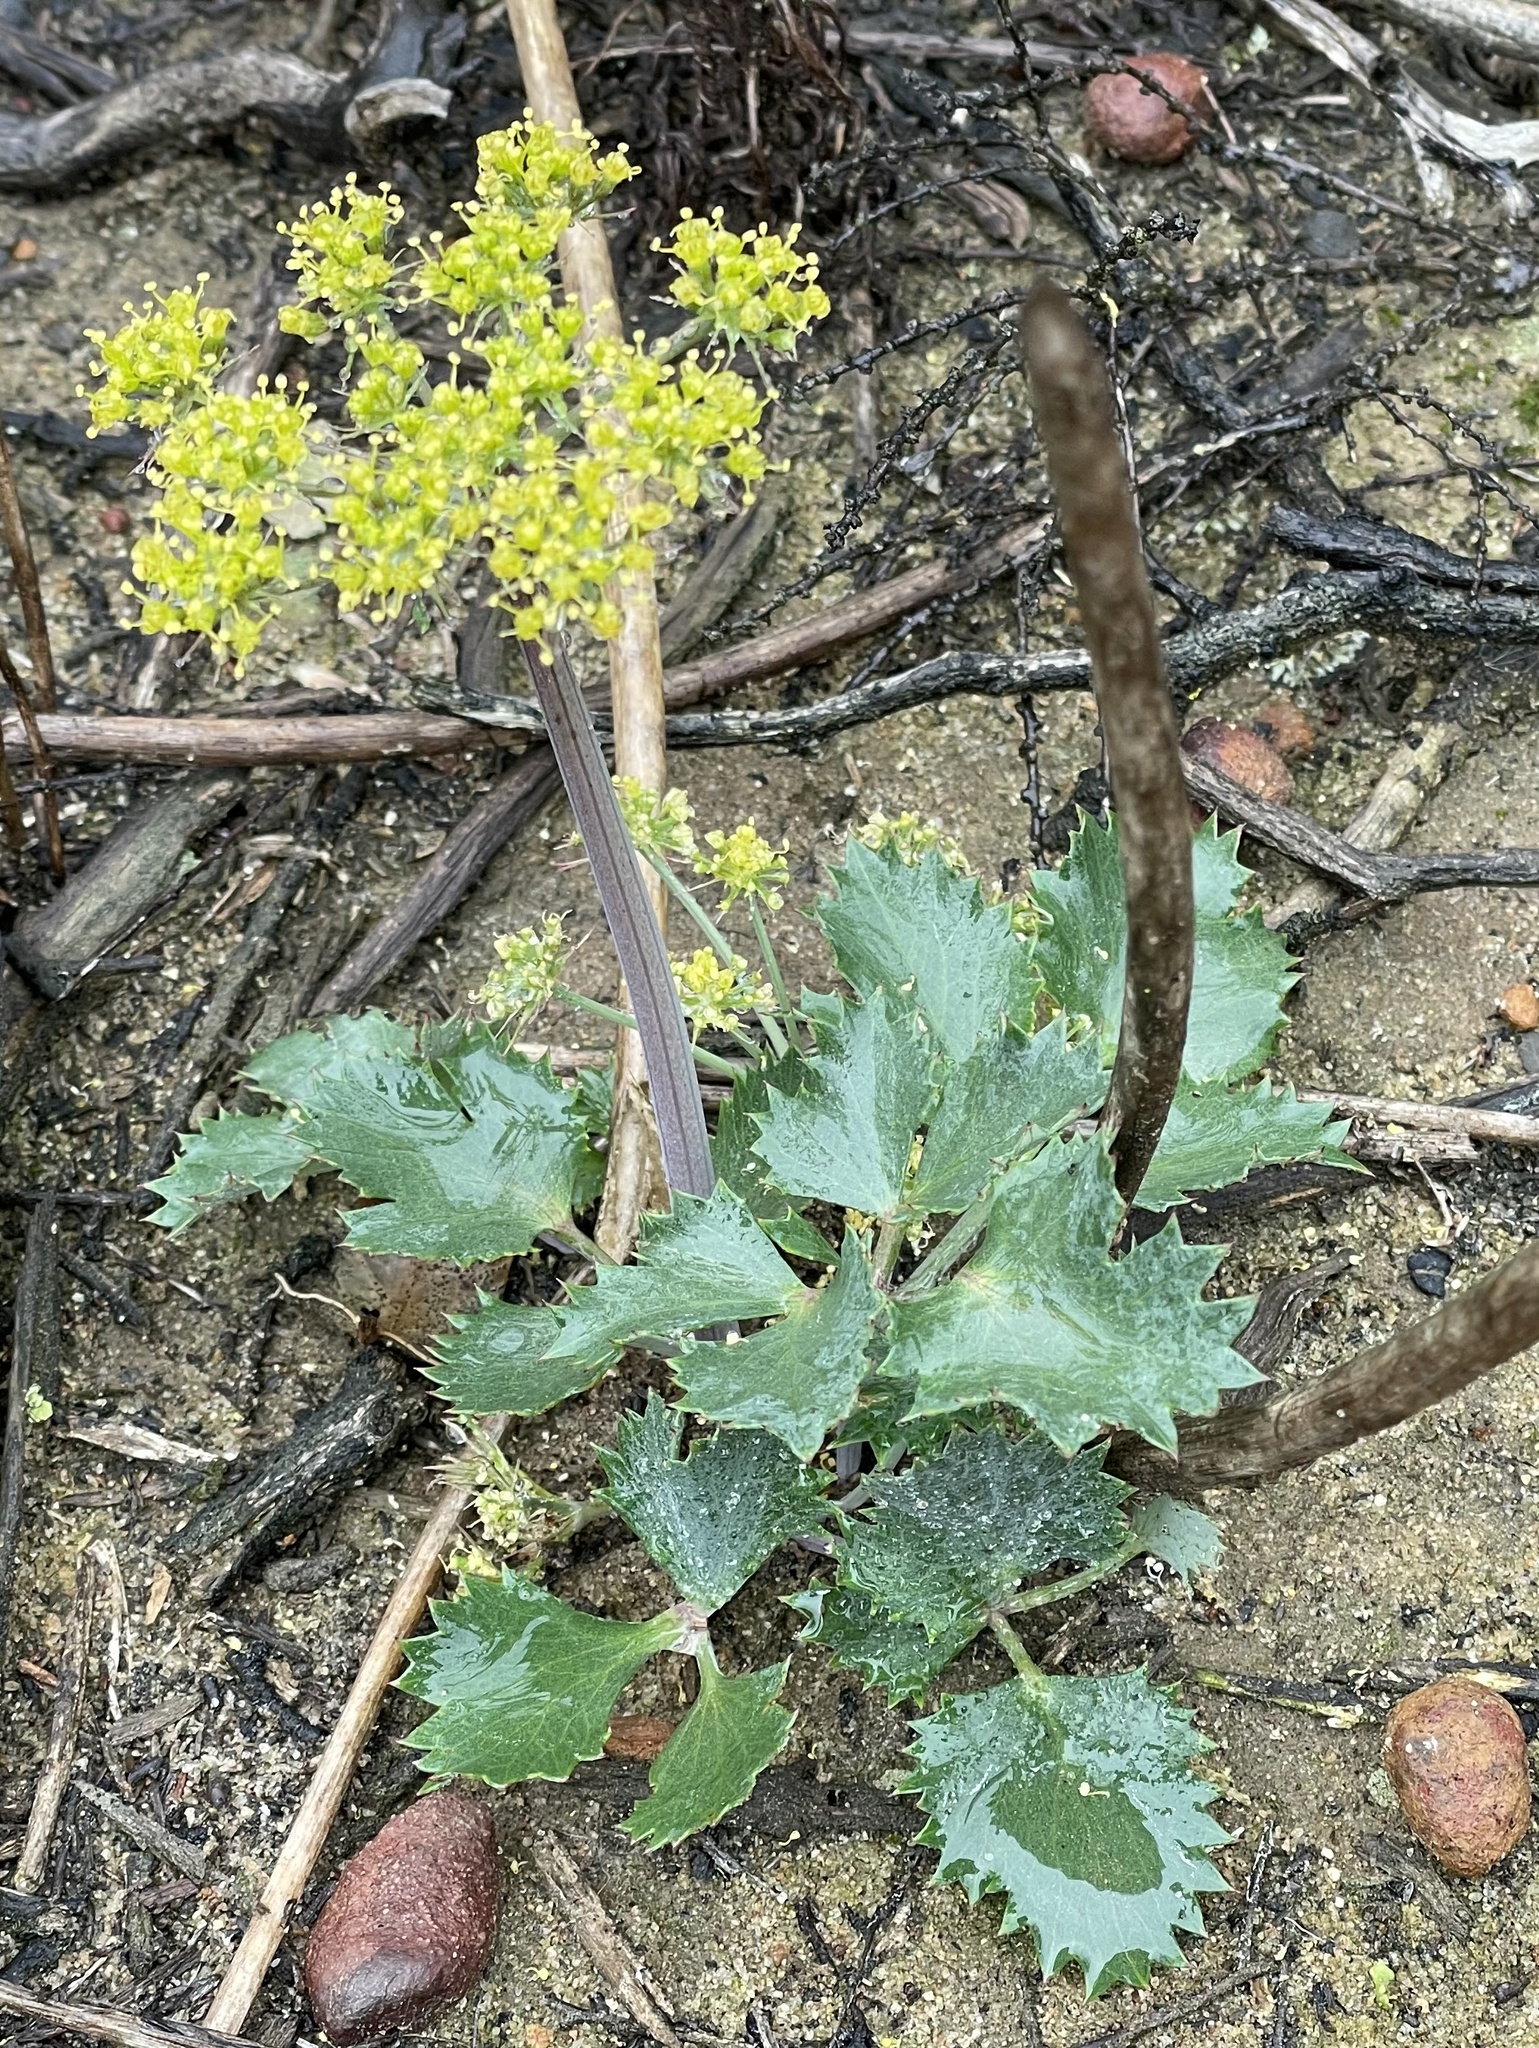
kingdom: Plantae
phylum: Tracheophyta
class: Magnoliopsida
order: Apiales
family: Apiaceae
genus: Lomatium
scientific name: Lomatium lucidum
